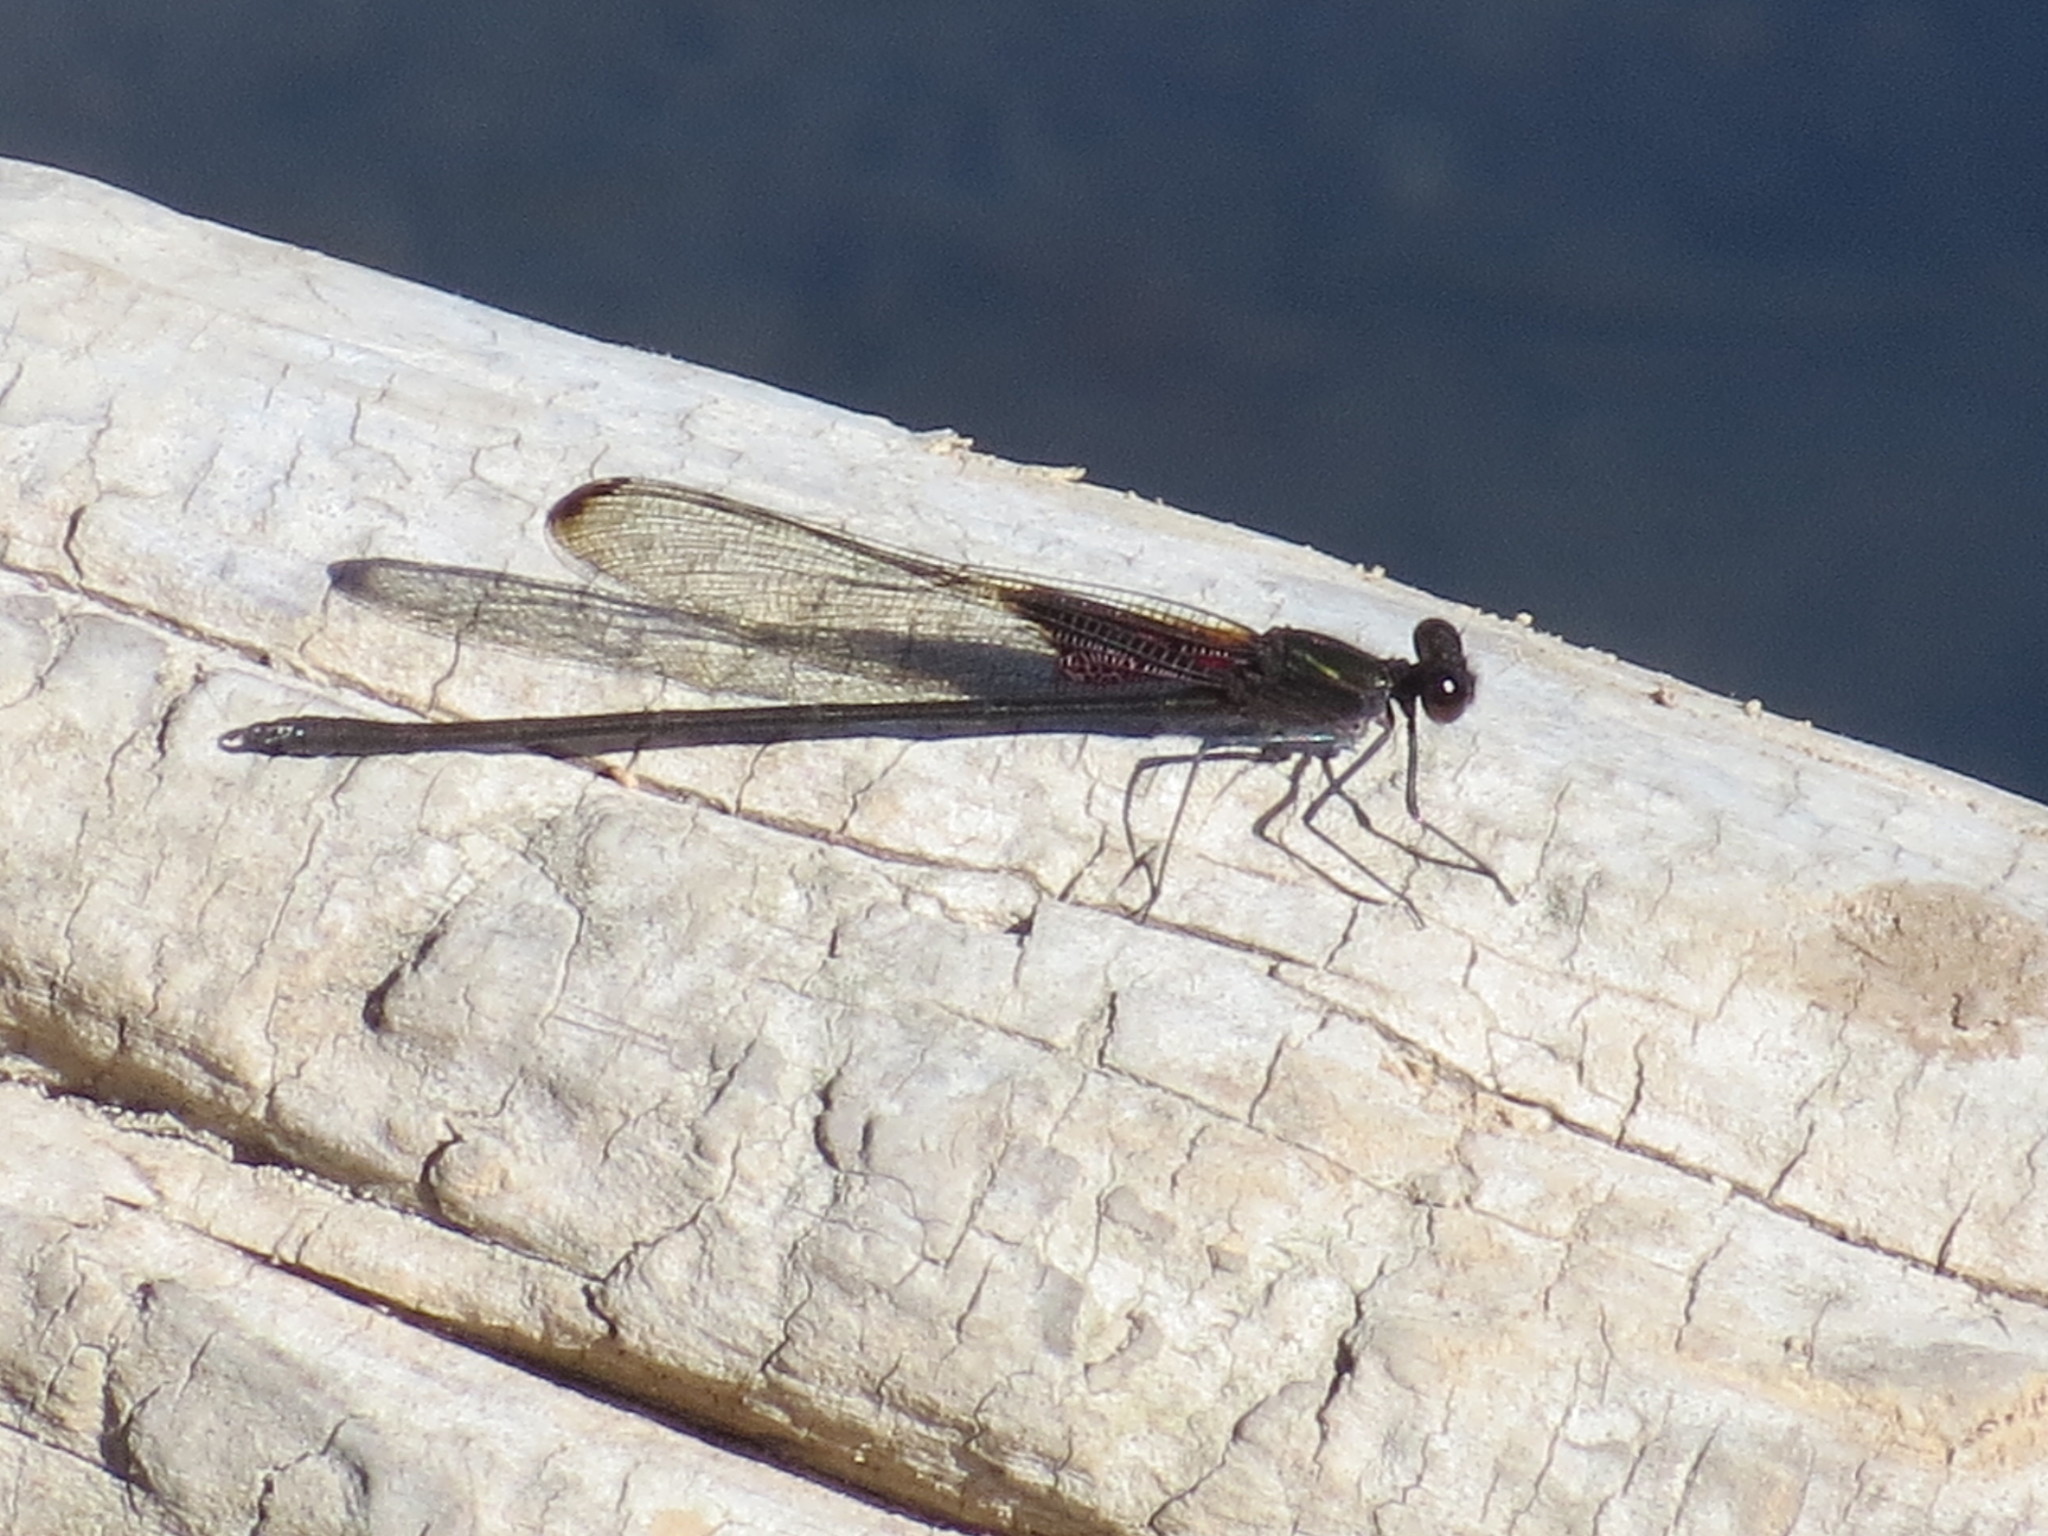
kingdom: Animalia
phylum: Arthropoda
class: Insecta
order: Odonata
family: Calopterygidae
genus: Hetaerina
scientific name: Hetaerina titia
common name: Smoky rubyspot
